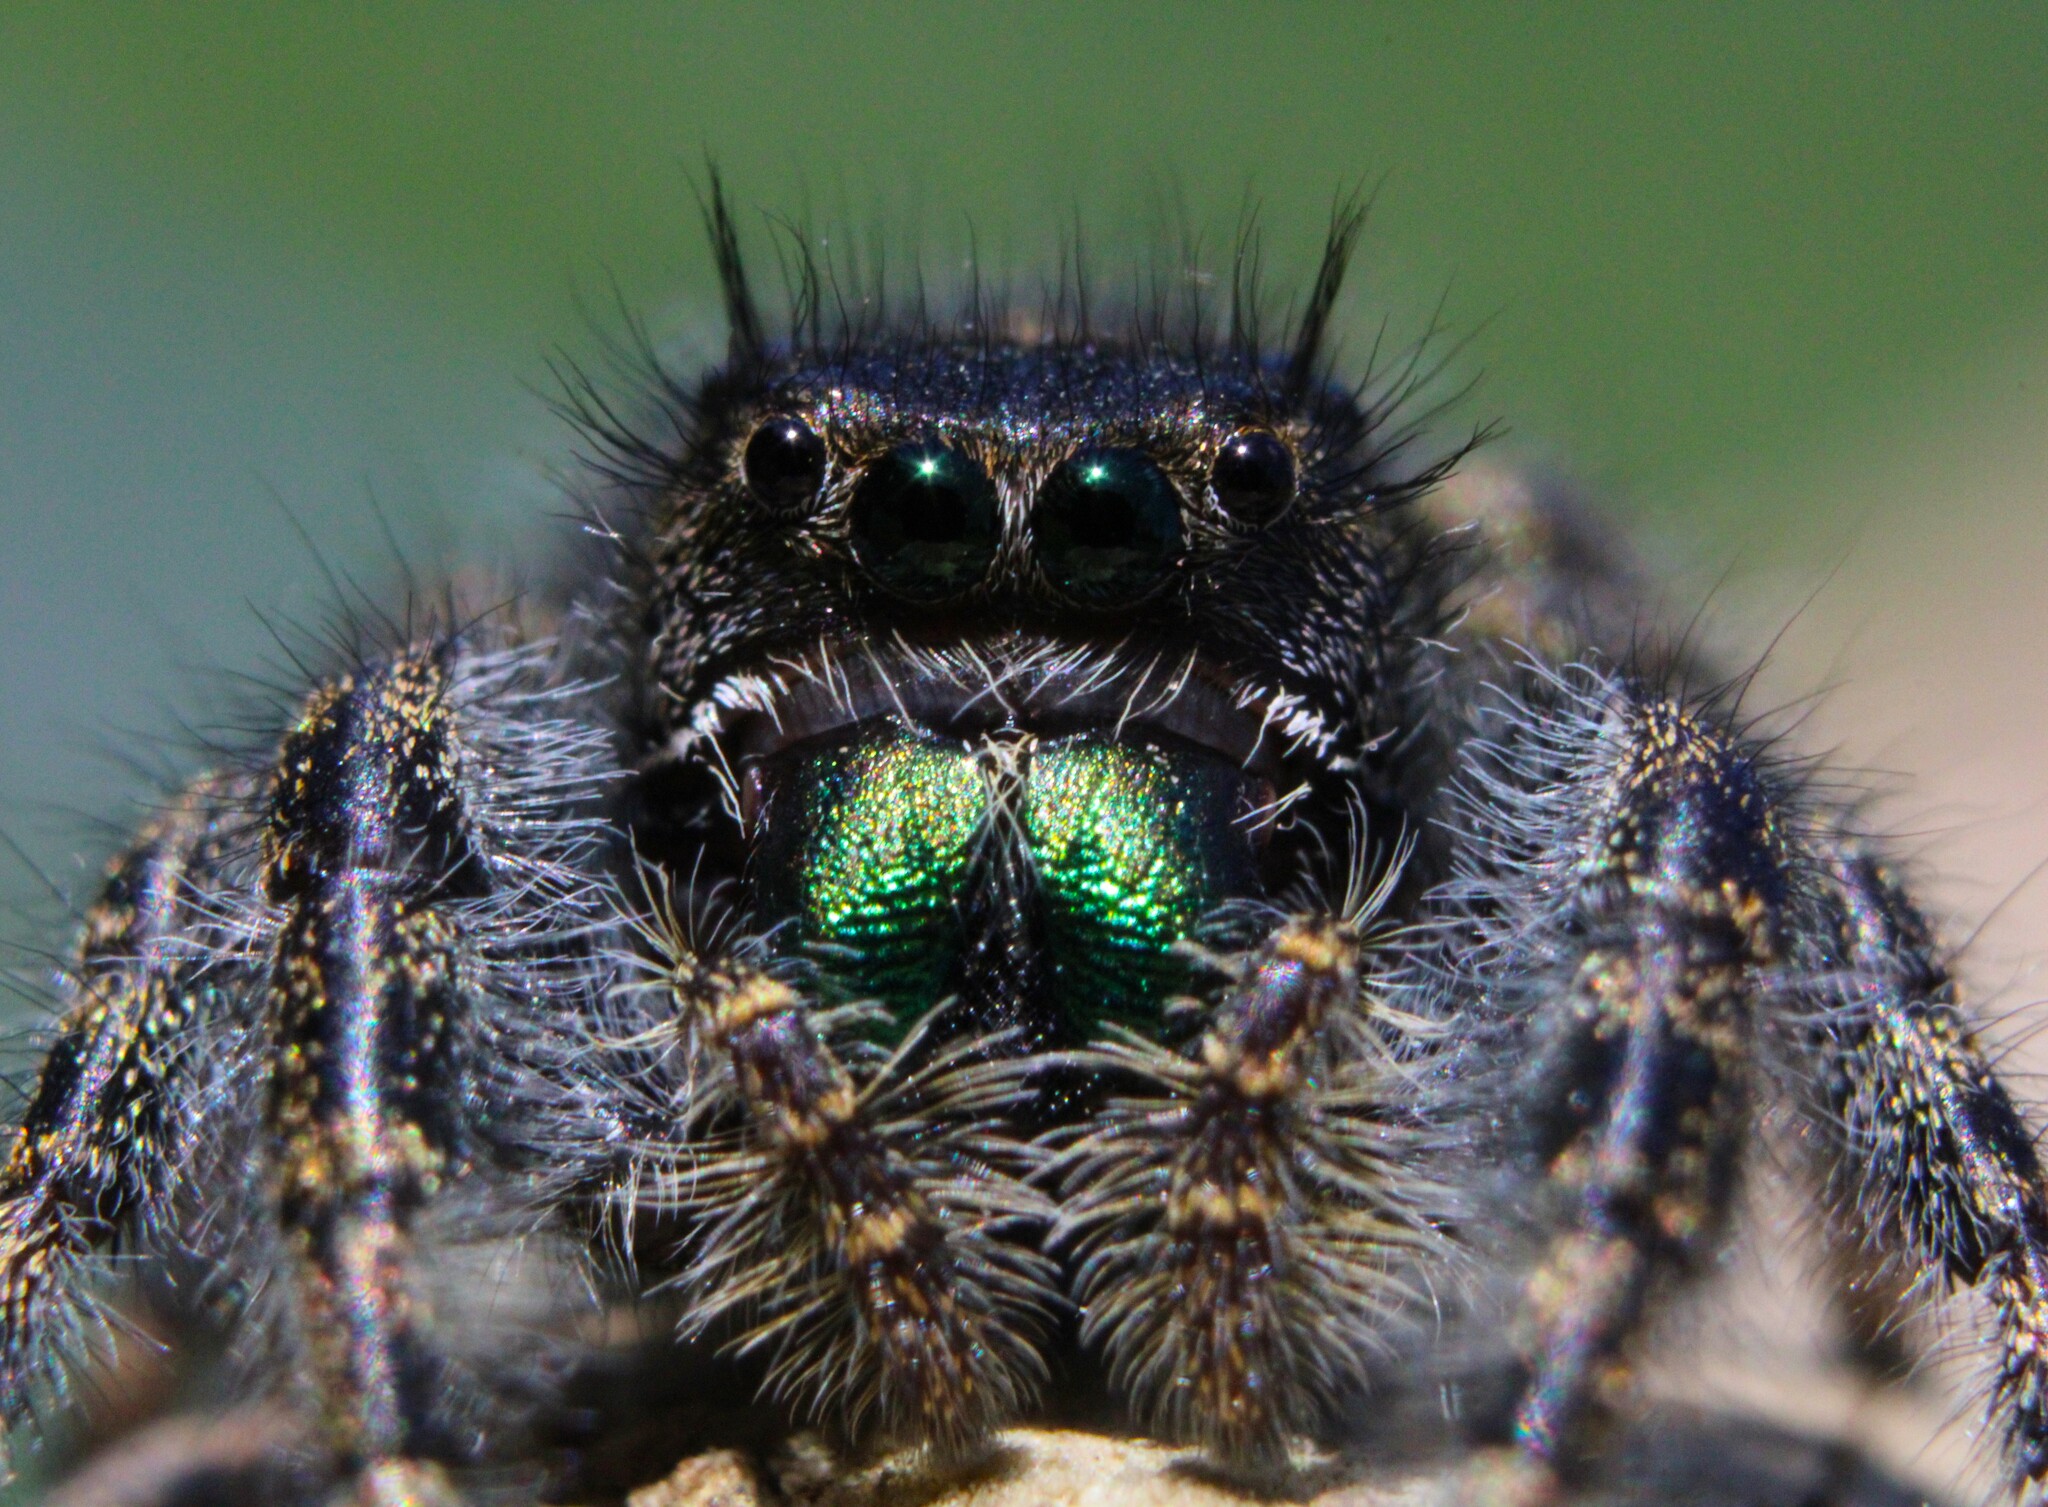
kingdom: Animalia
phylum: Arthropoda
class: Arachnida
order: Araneae
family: Salticidae
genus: Phidippus
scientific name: Phidippus audax
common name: Bold jumper
